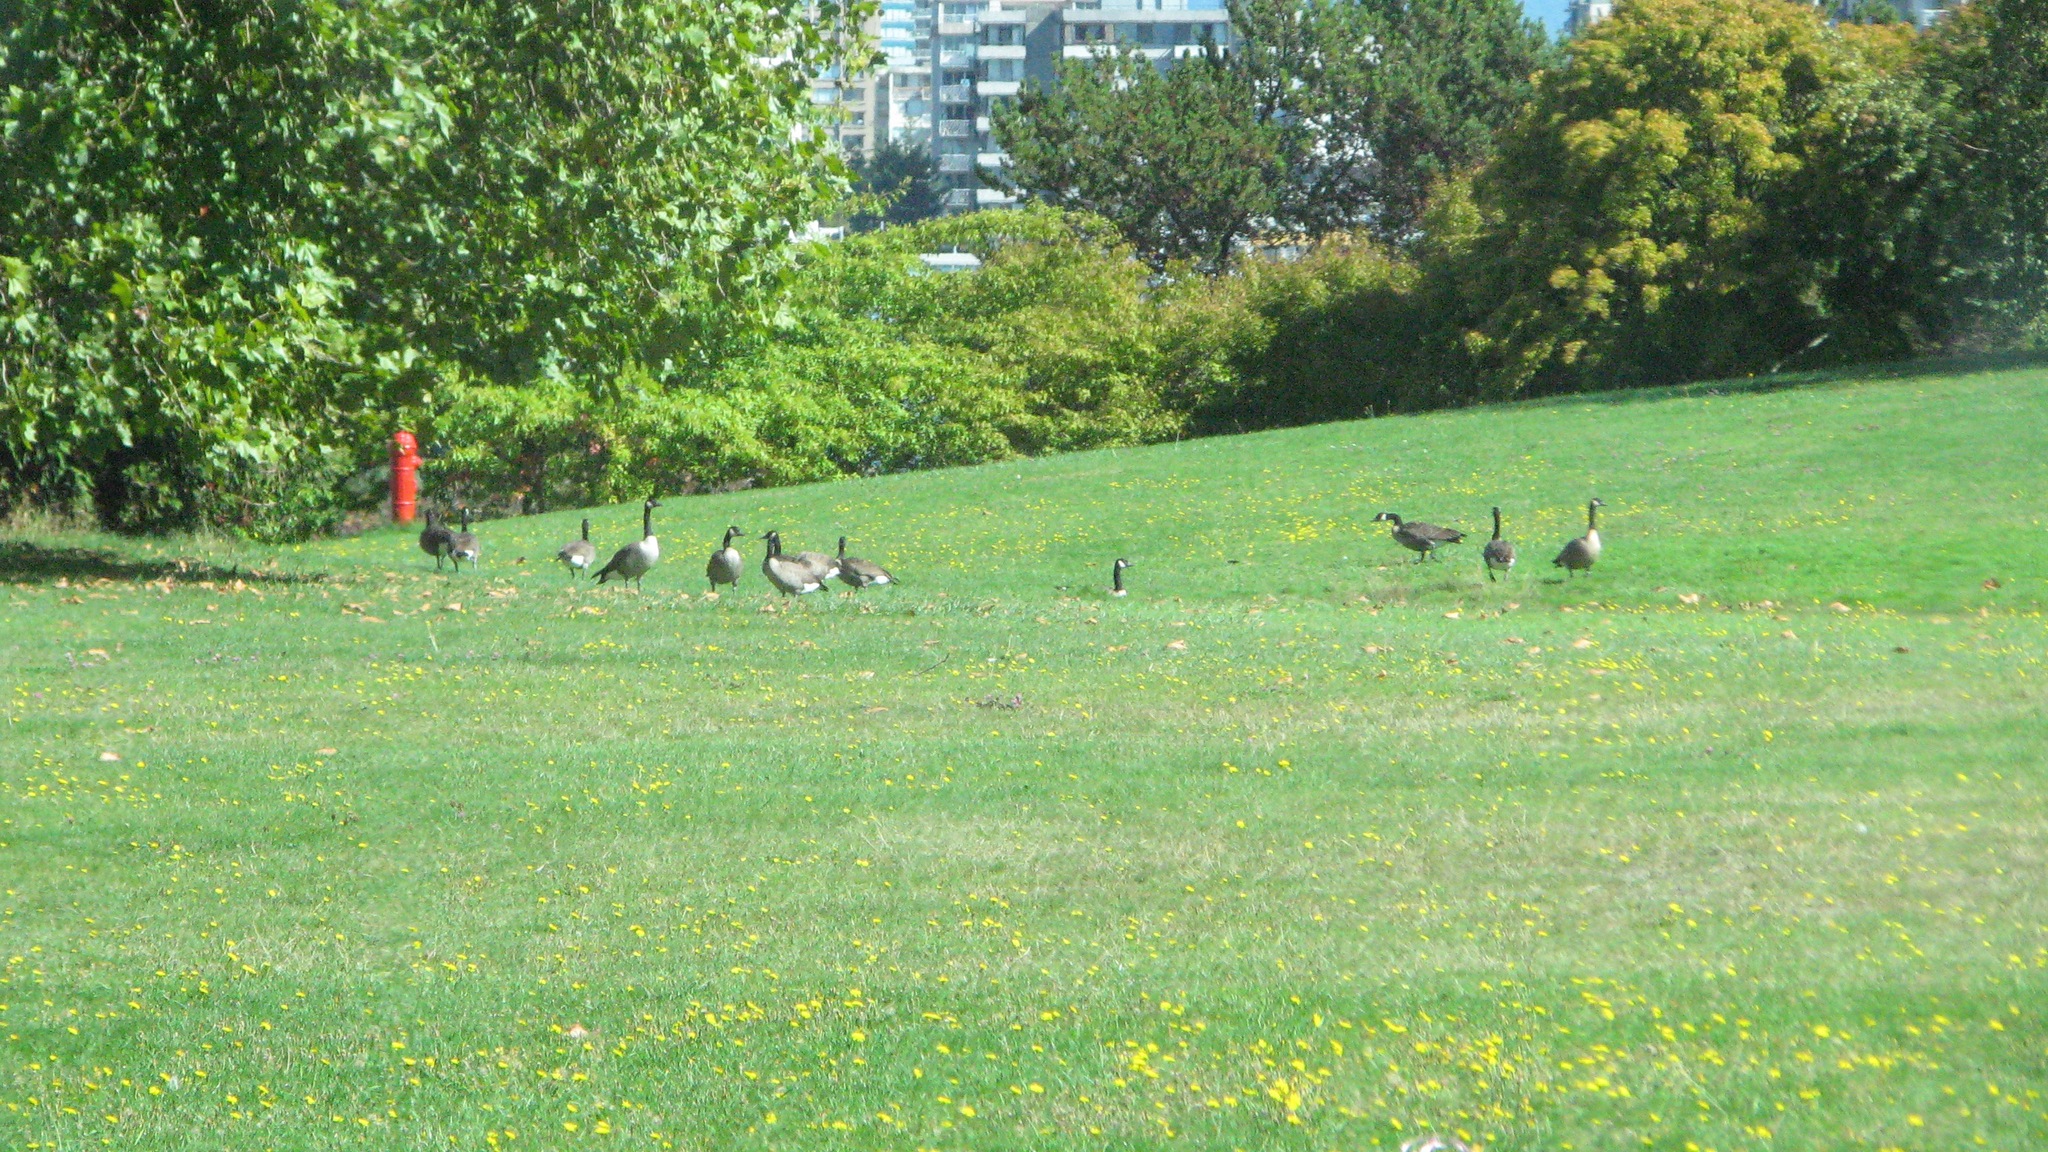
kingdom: Animalia
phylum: Chordata
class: Aves
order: Anseriformes
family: Anatidae
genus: Branta
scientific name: Branta canadensis
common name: Canada goose
